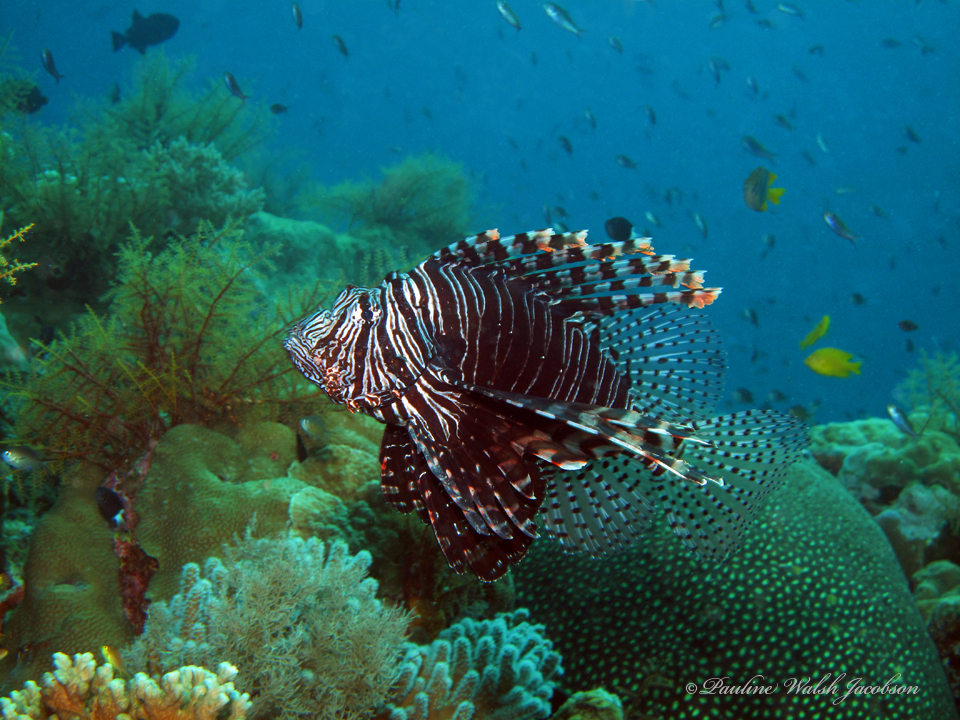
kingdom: Animalia
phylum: Chordata
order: Scorpaeniformes
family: Scorpaenidae
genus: Pterois
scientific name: Pterois volitans
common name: Lionfish
